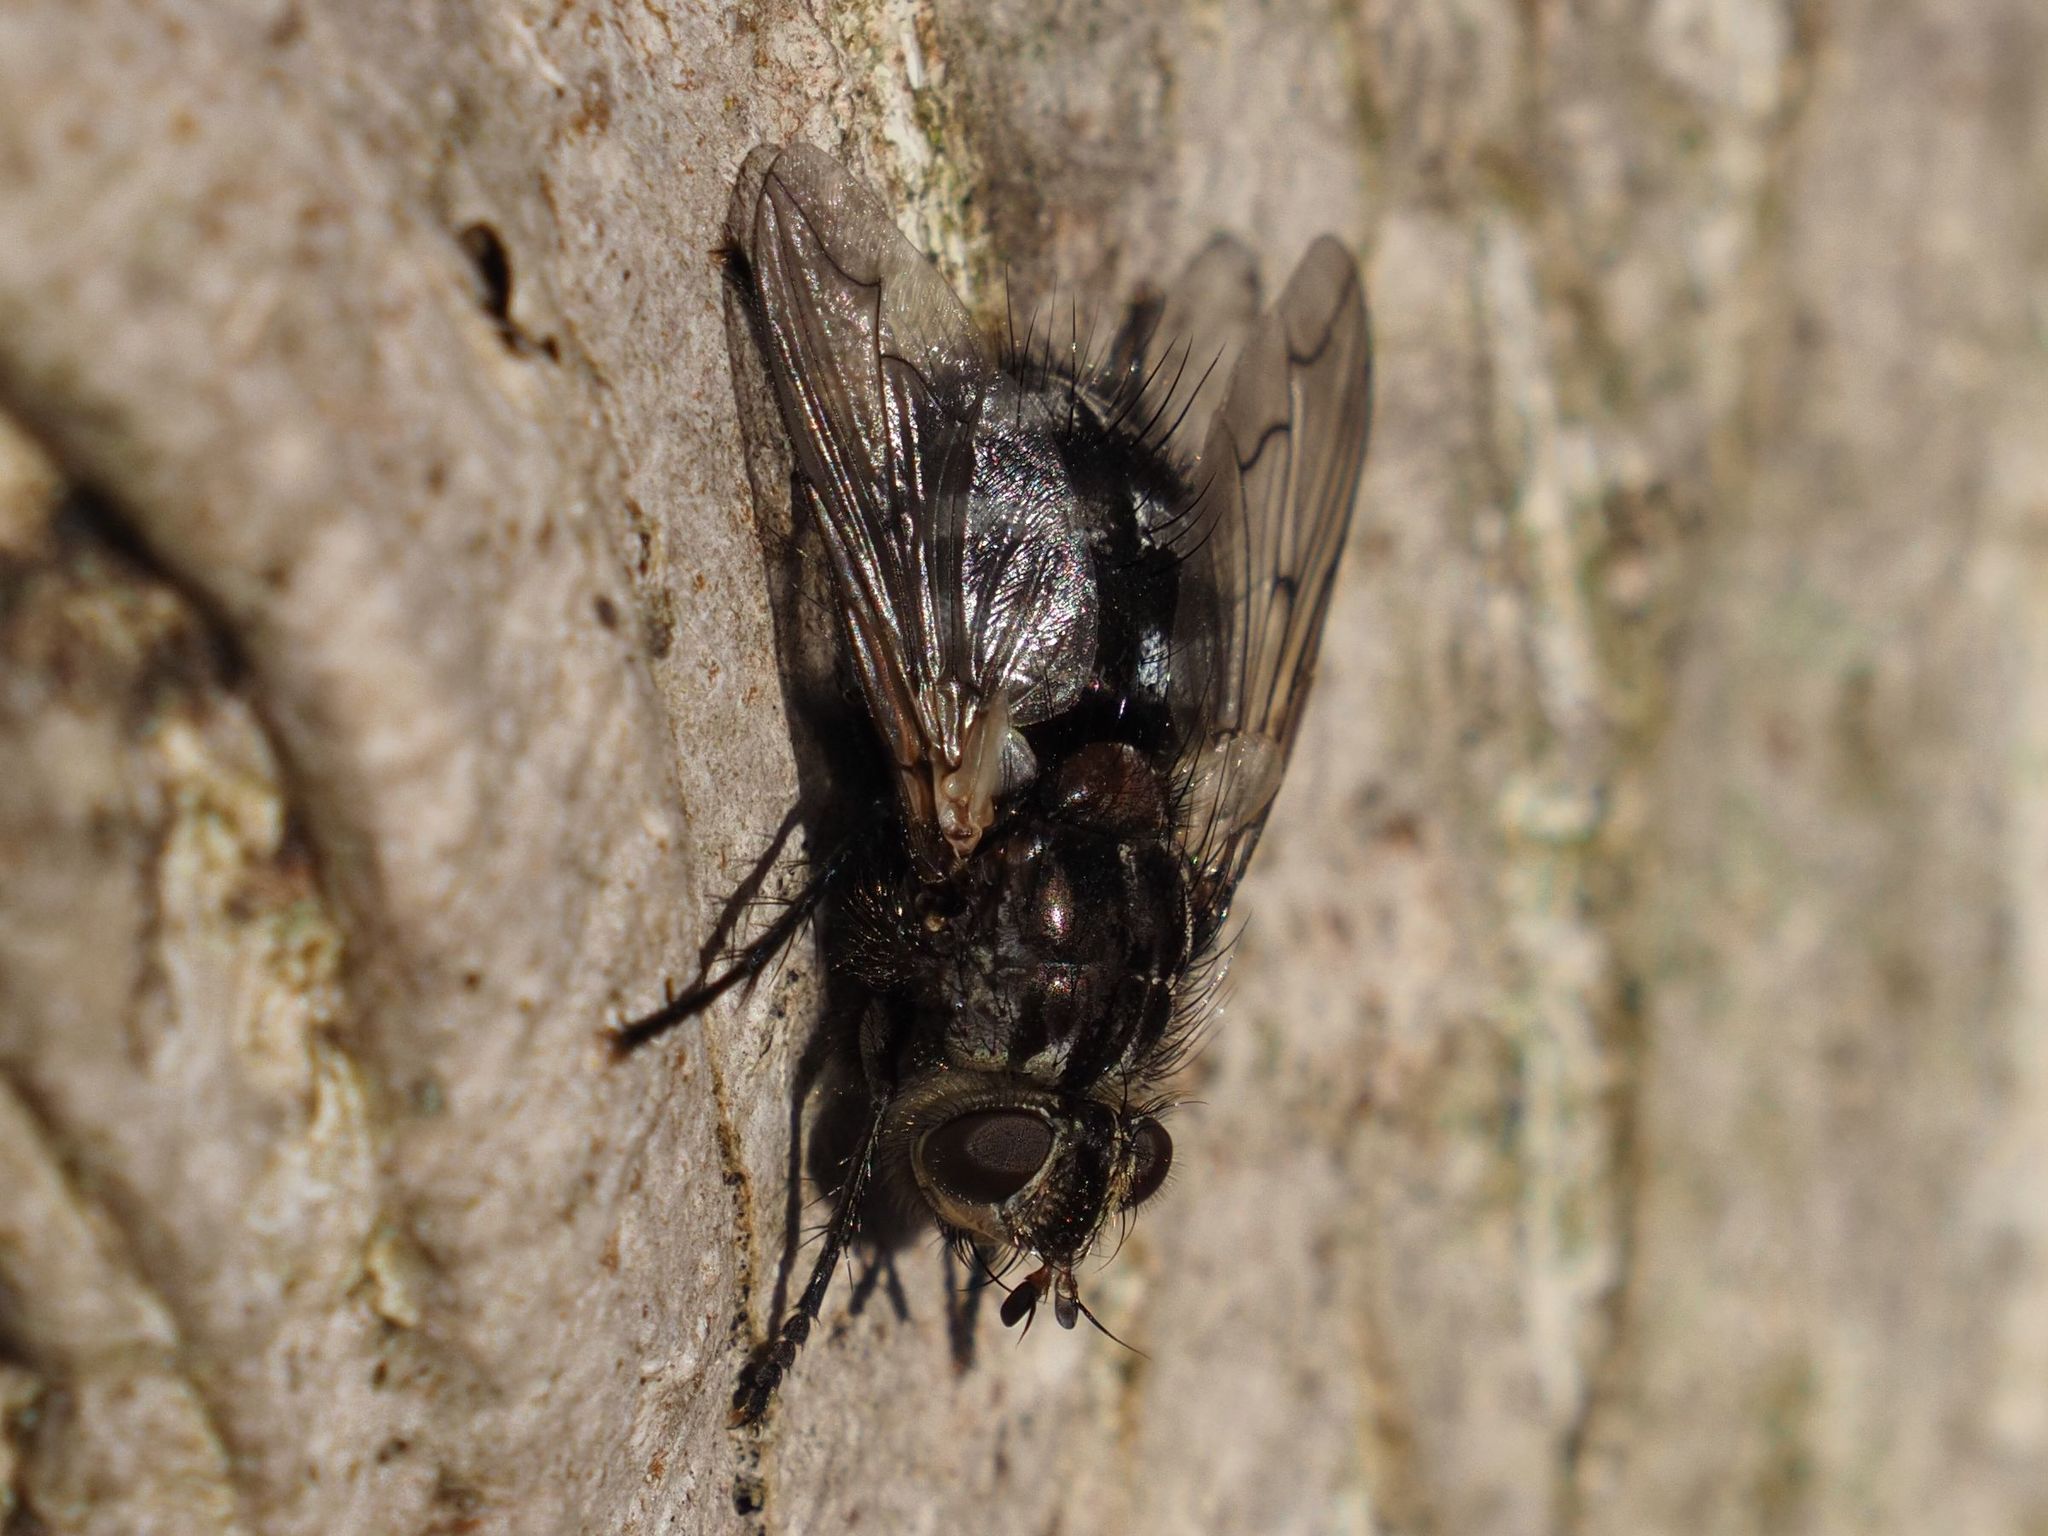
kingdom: Animalia
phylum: Arthropoda
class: Insecta
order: Diptera
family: Tachinidae
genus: Panzeria
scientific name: Panzeria puparum
